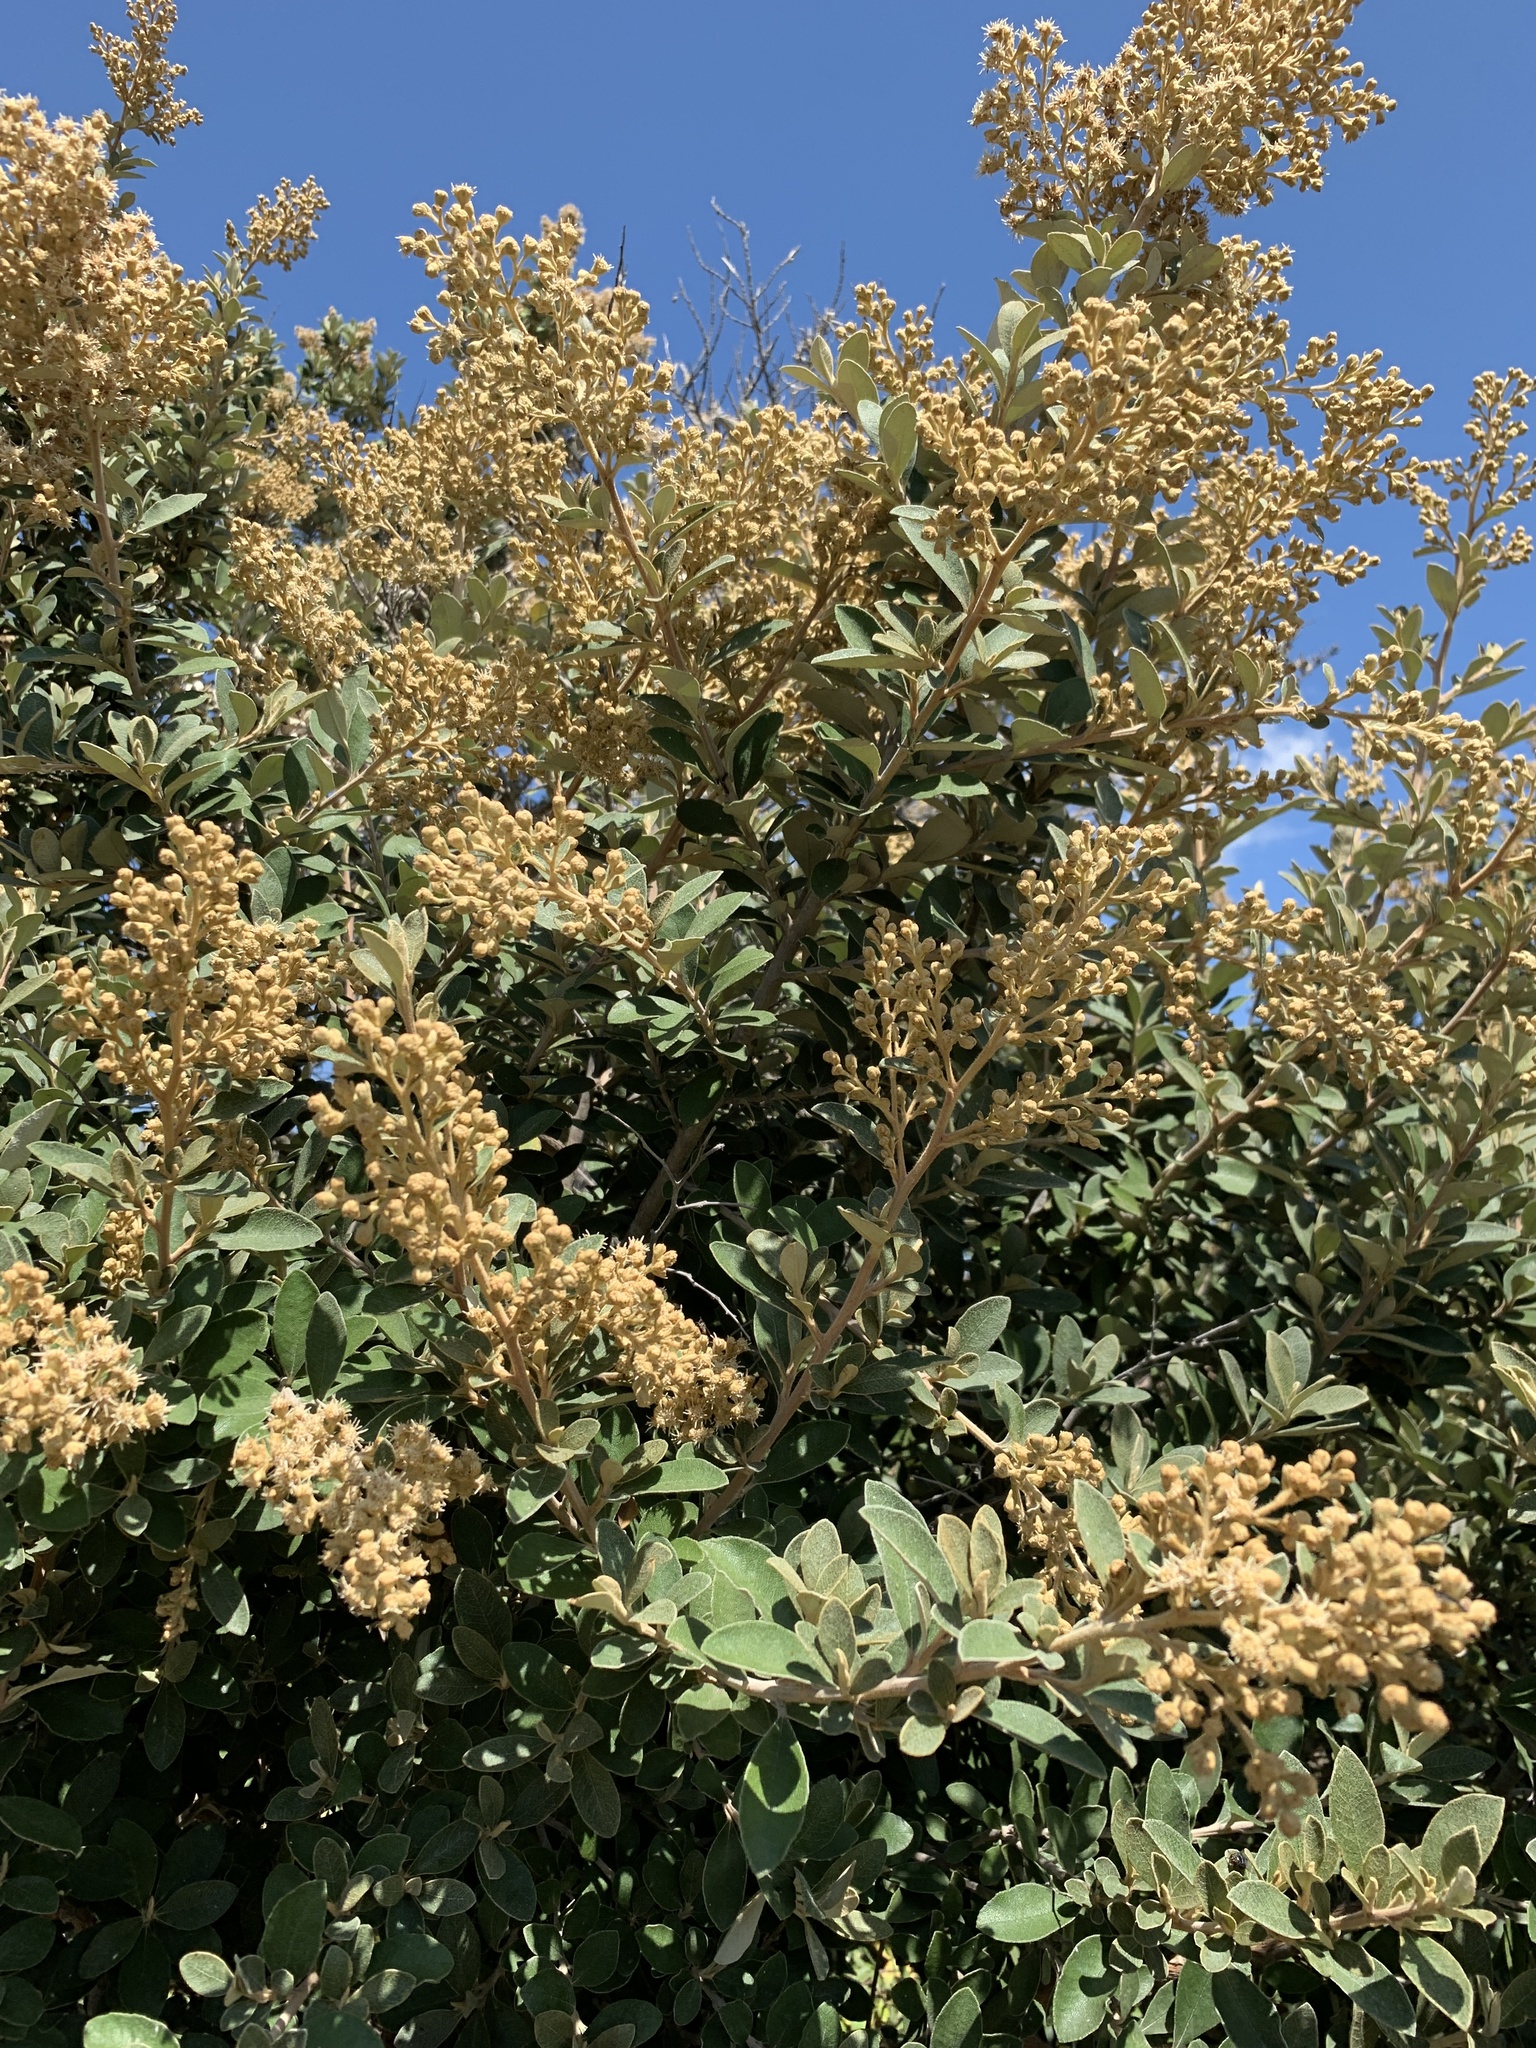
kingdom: Plantae
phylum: Tracheophyta
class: Magnoliopsida
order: Asterales
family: Asteraceae
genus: Tarchonanthus
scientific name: Tarchonanthus littoralis
